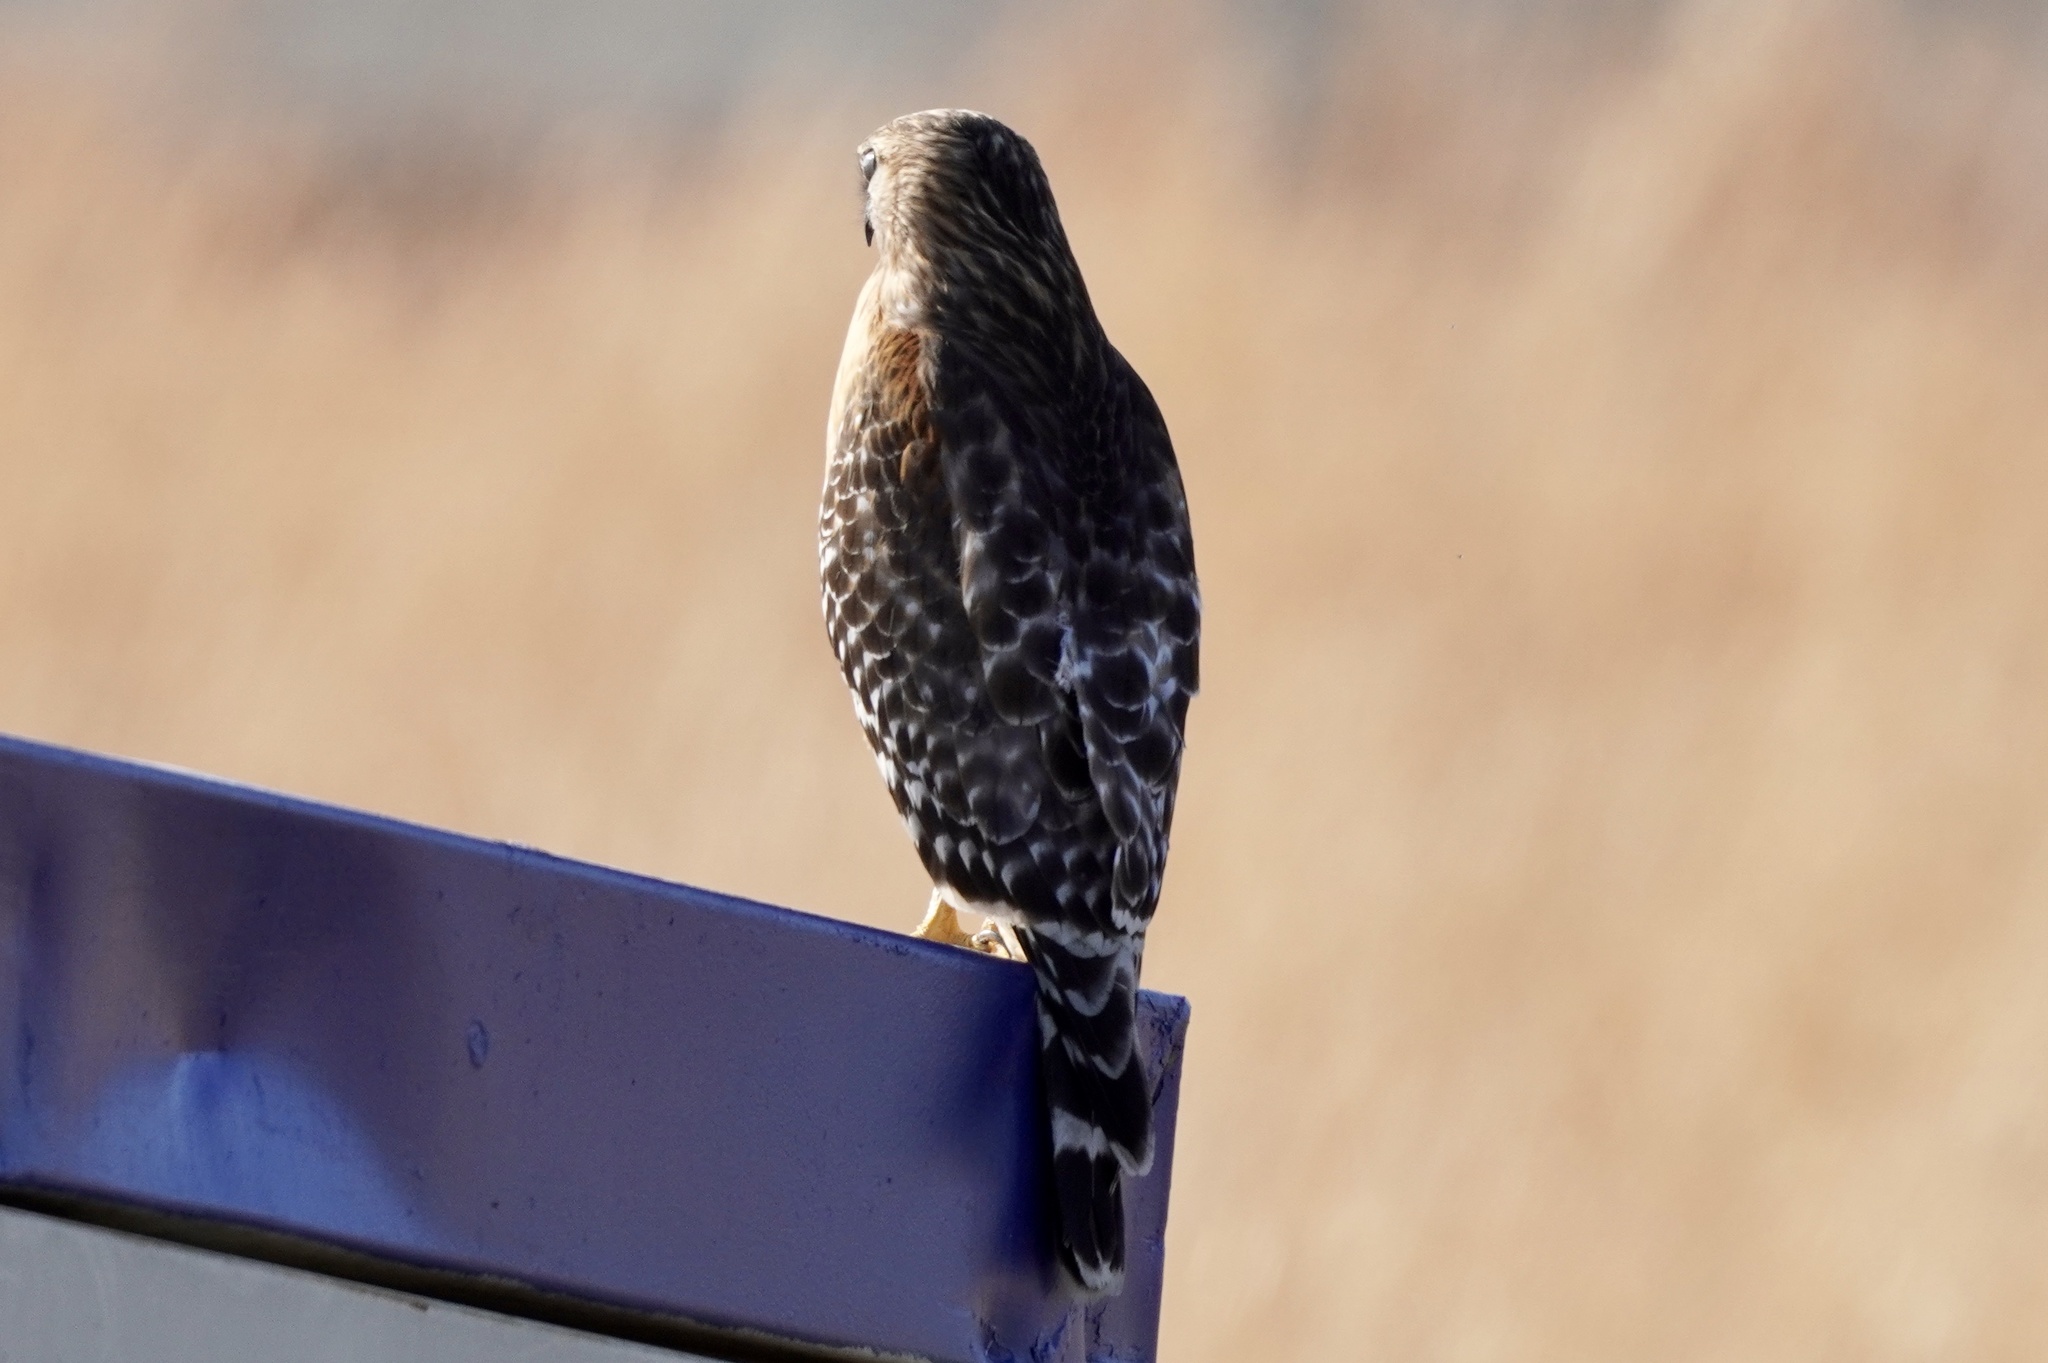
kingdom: Animalia
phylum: Chordata
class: Aves
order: Accipitriformes
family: Accipitridae
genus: Buteo
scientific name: Buteo lineatus
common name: Red-shouldered hawk
